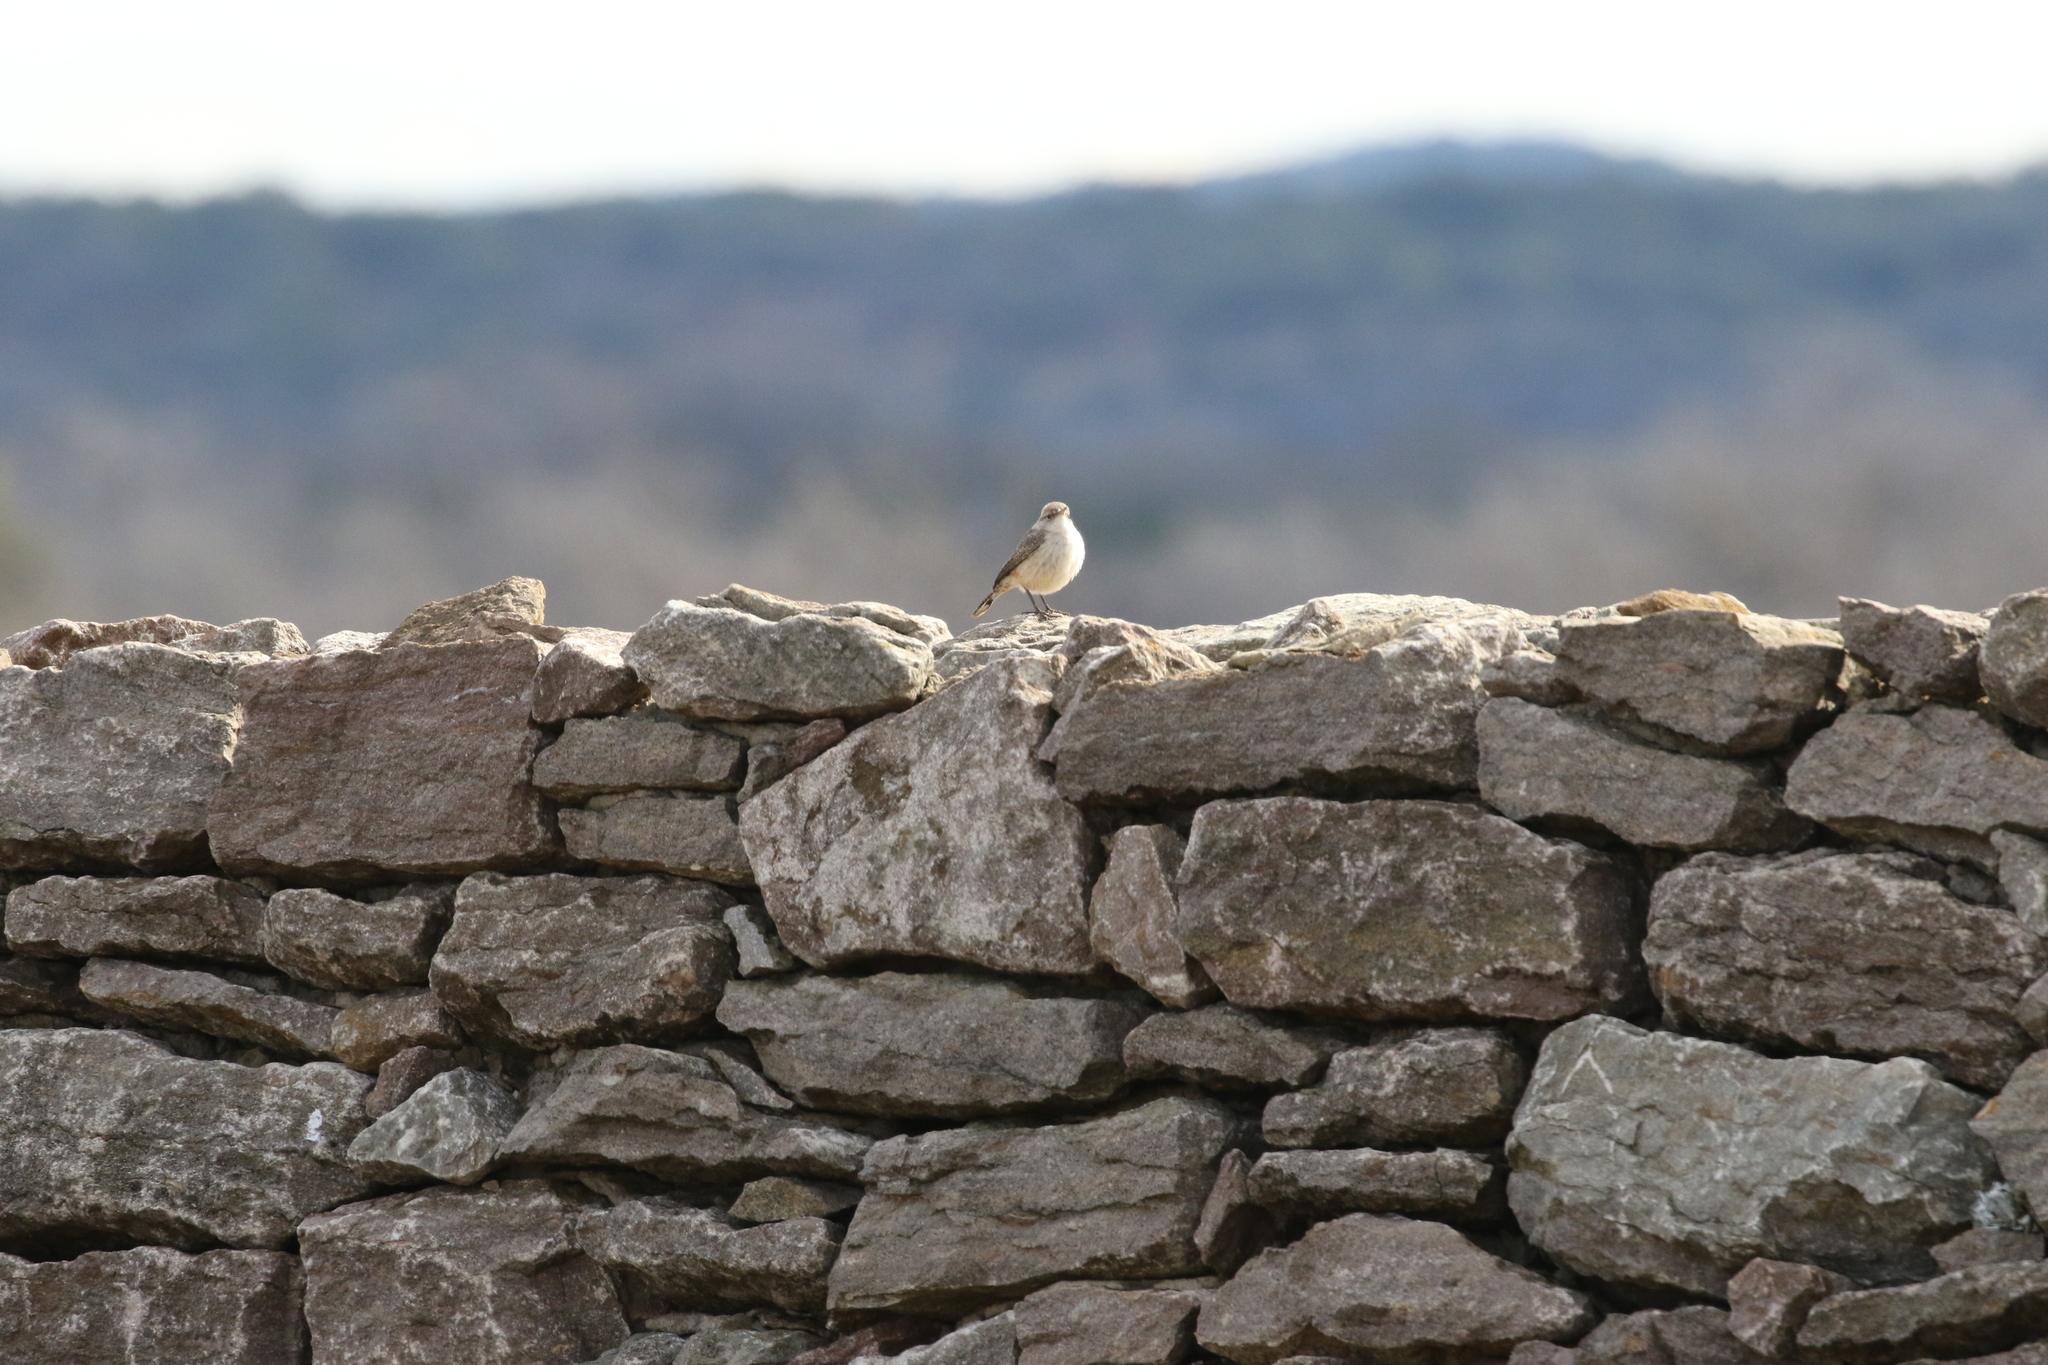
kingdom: Animalia
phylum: Chordata
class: Aves
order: Passeriformes
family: Troglodytidae
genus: Salpinctes
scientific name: Salpinctes obsoletus
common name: Rock wren
